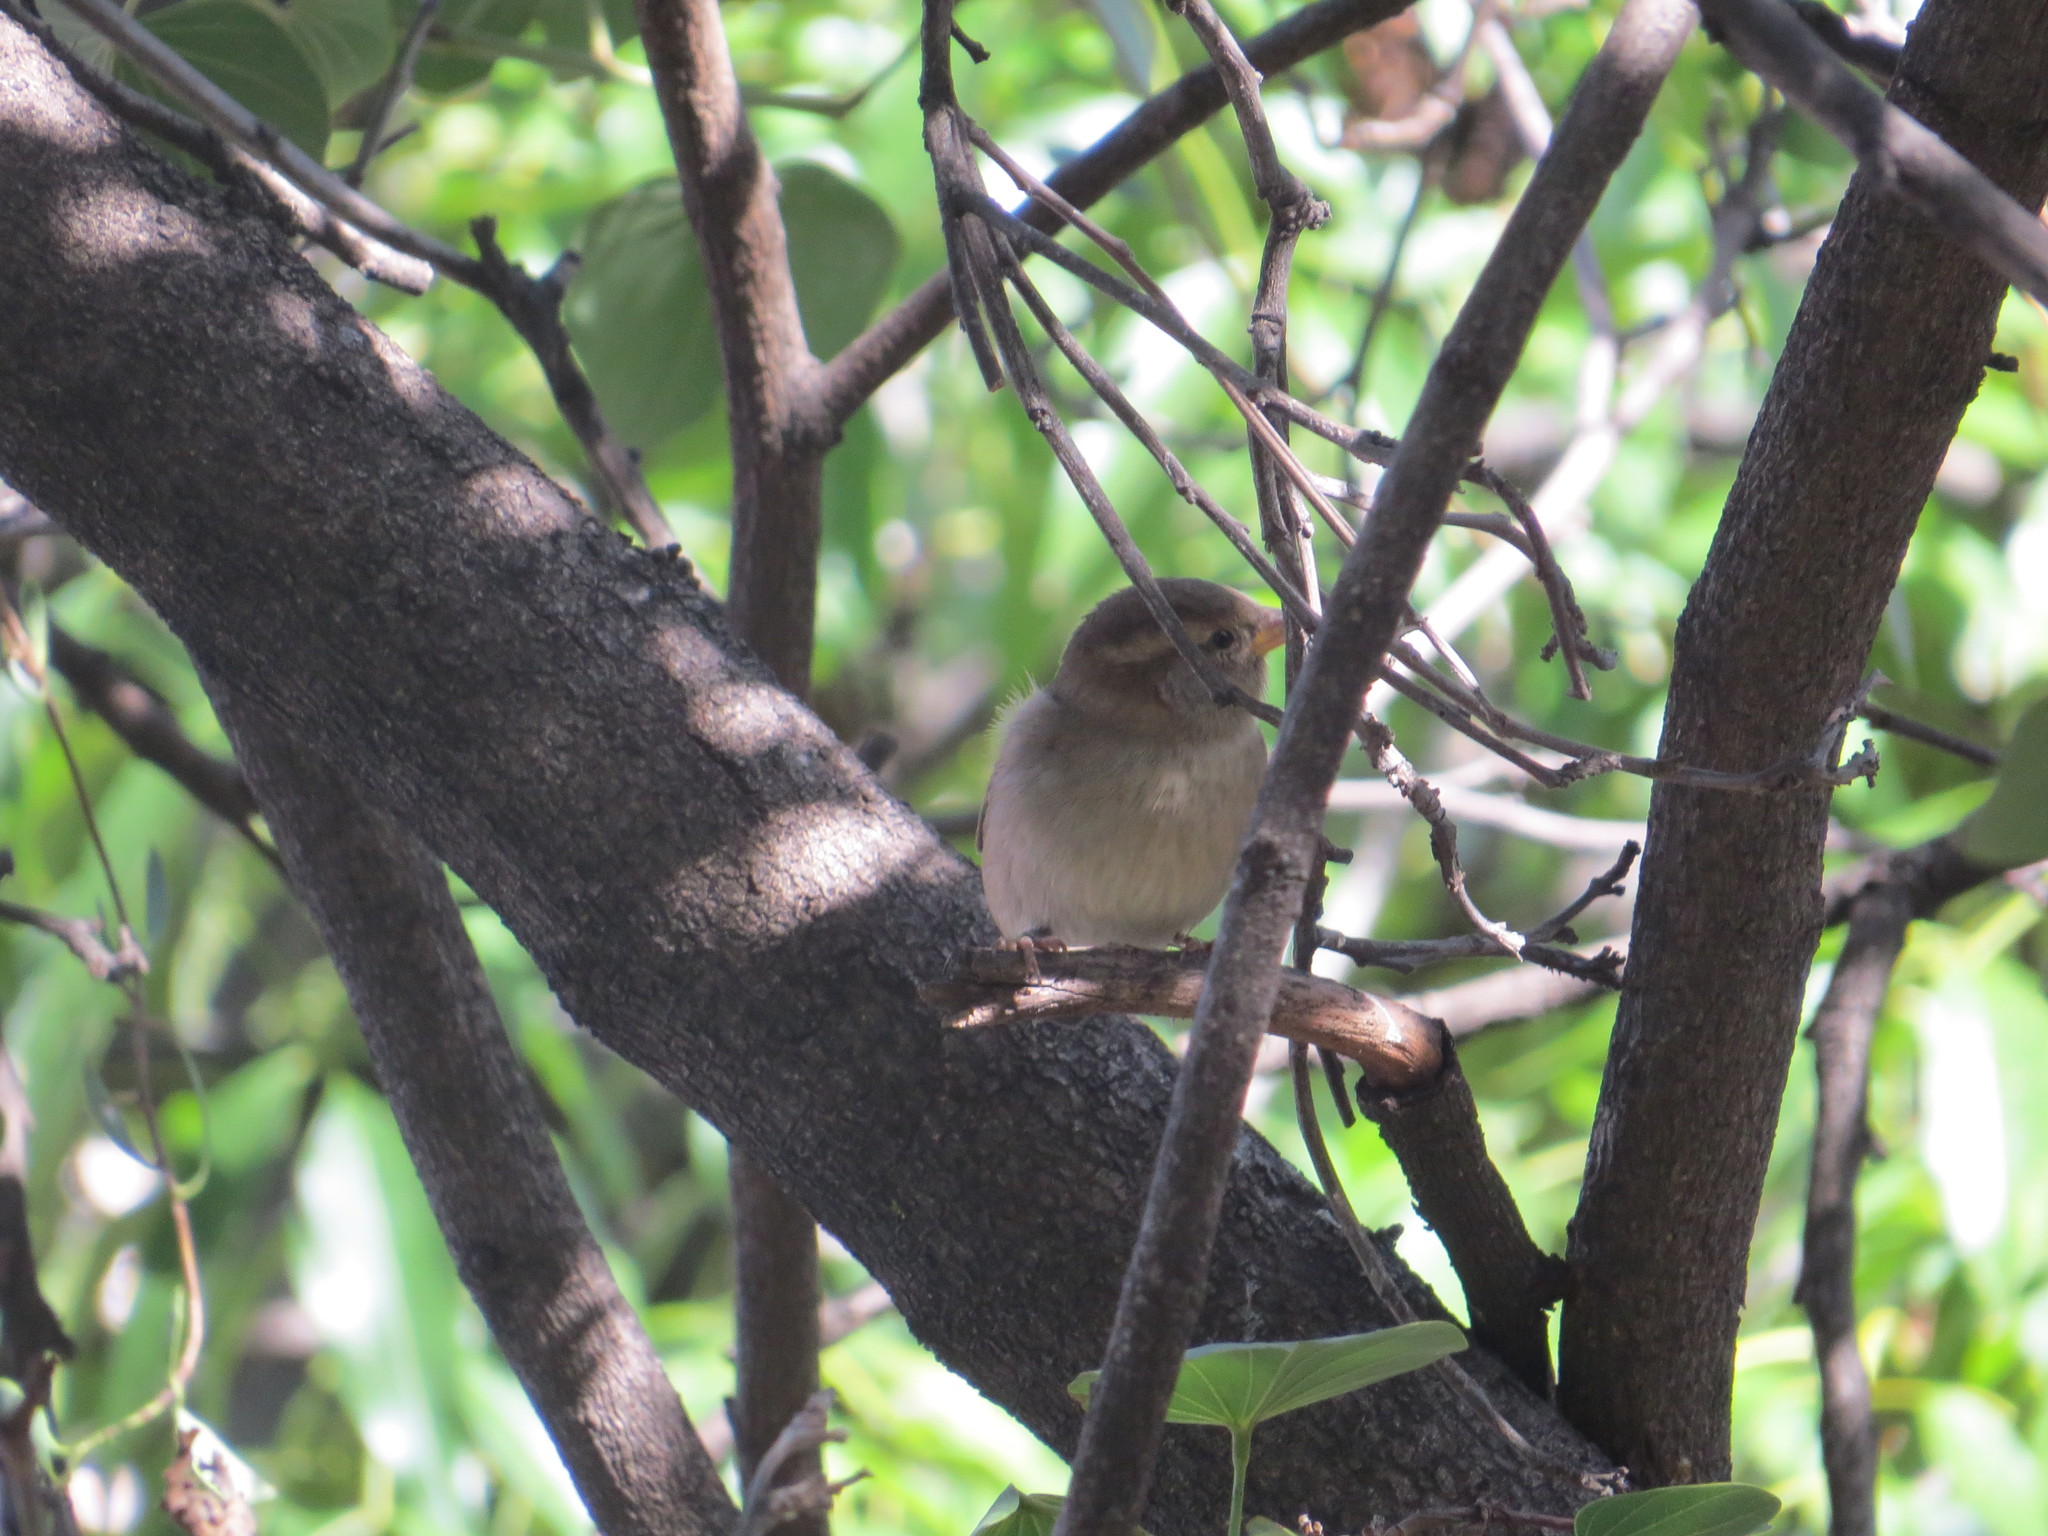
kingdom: Animalia
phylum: Chordata
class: Aves
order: Passeriformes
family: Passeridae
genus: Passer
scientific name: Passer domesticus
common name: House sparrow
